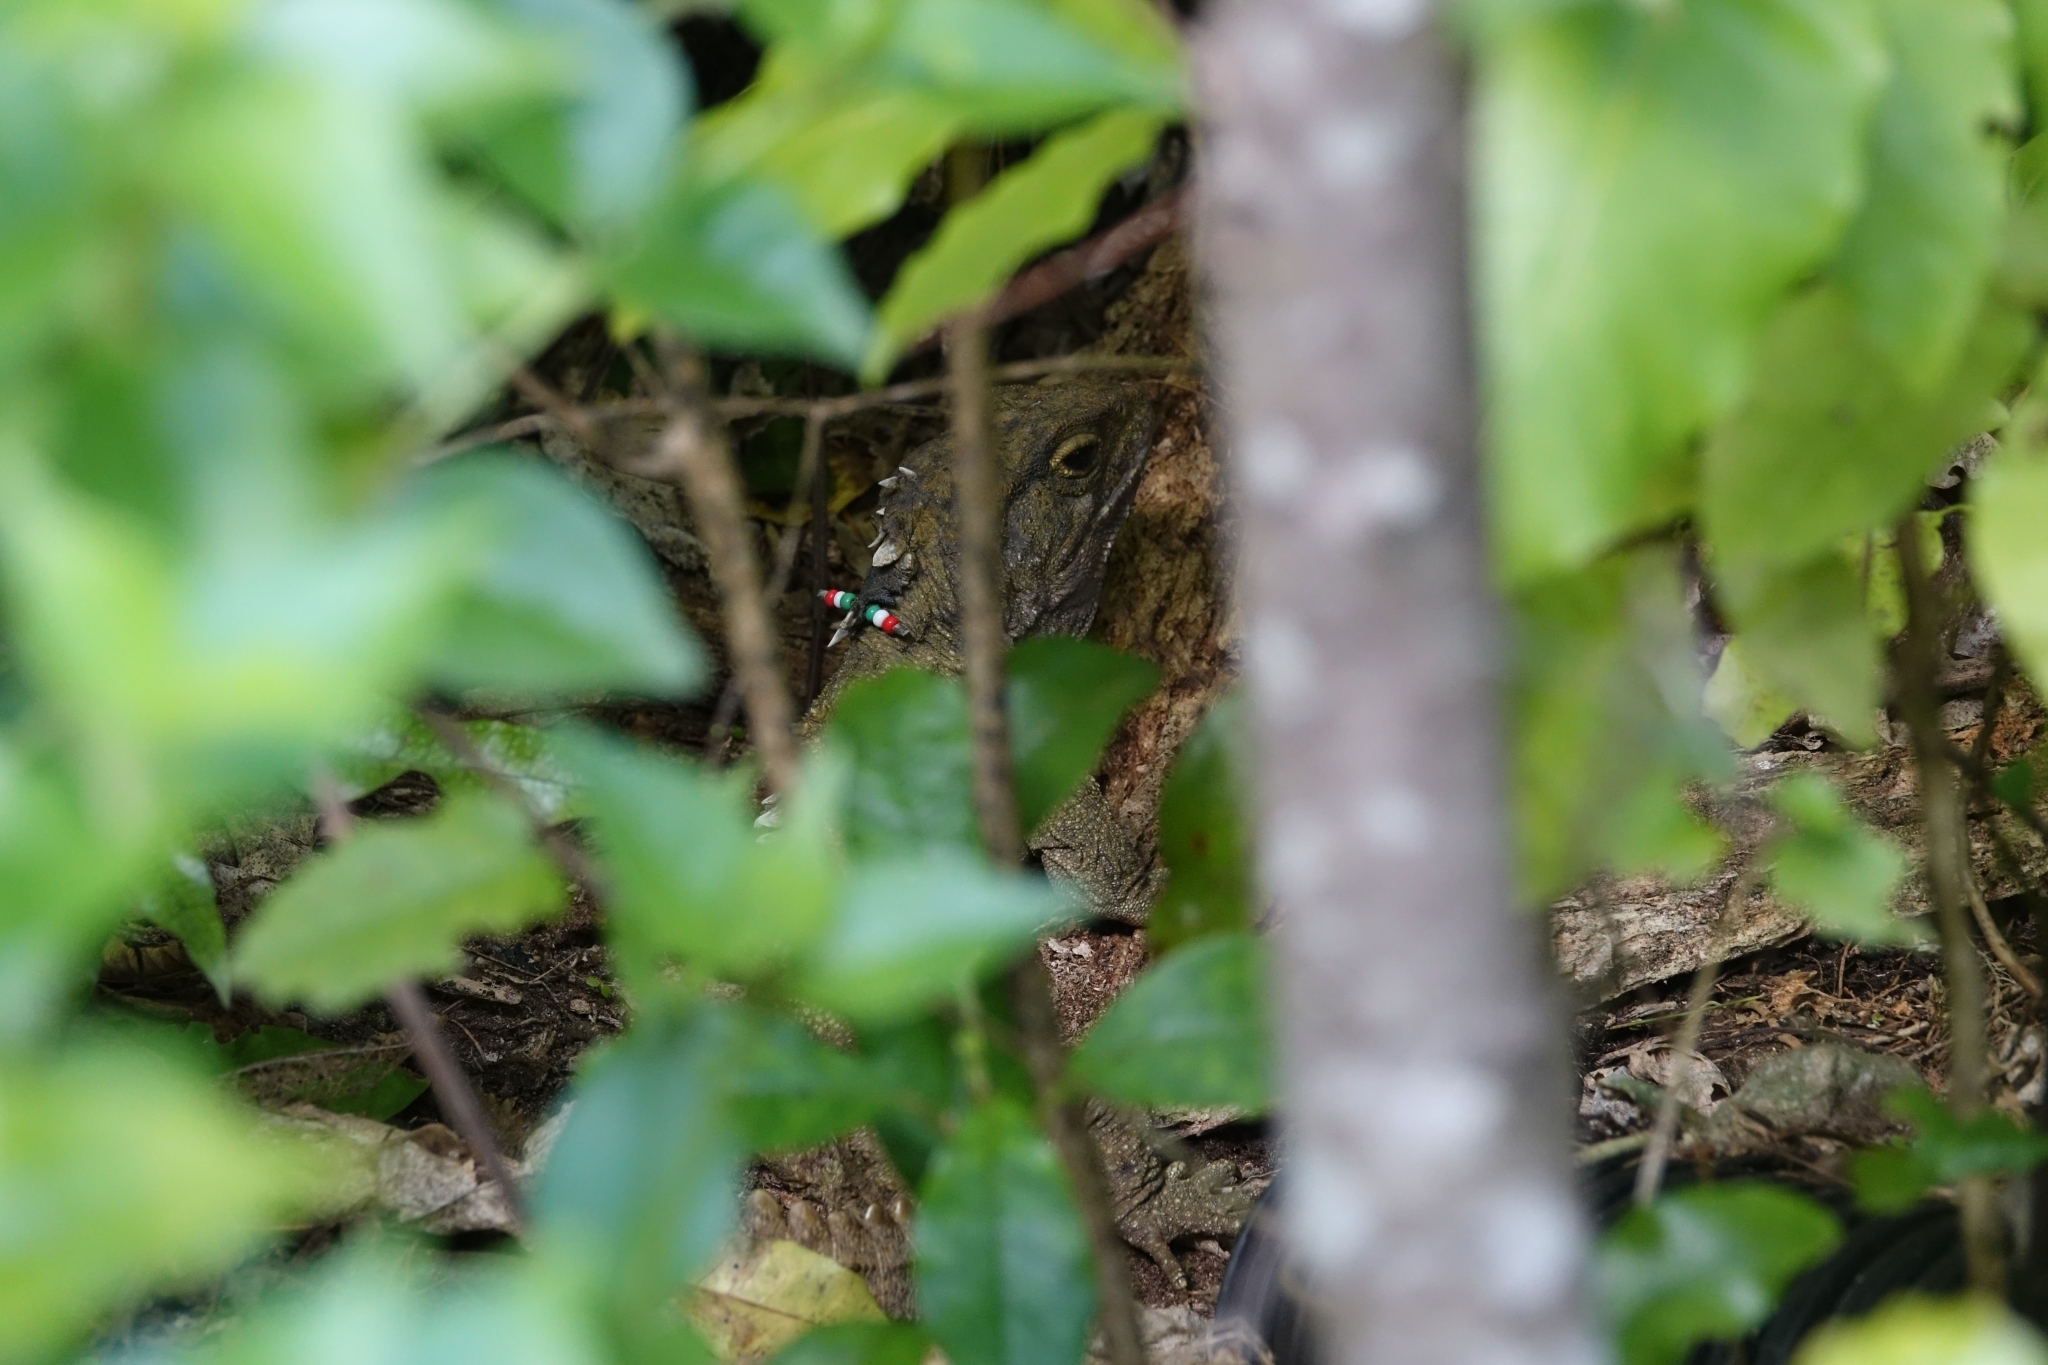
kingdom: Animalia
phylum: Chordata
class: Sphenodontia
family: Sphenodontidae
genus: Sphenodon
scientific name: Sphenodon punctatus
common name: Tuatara
